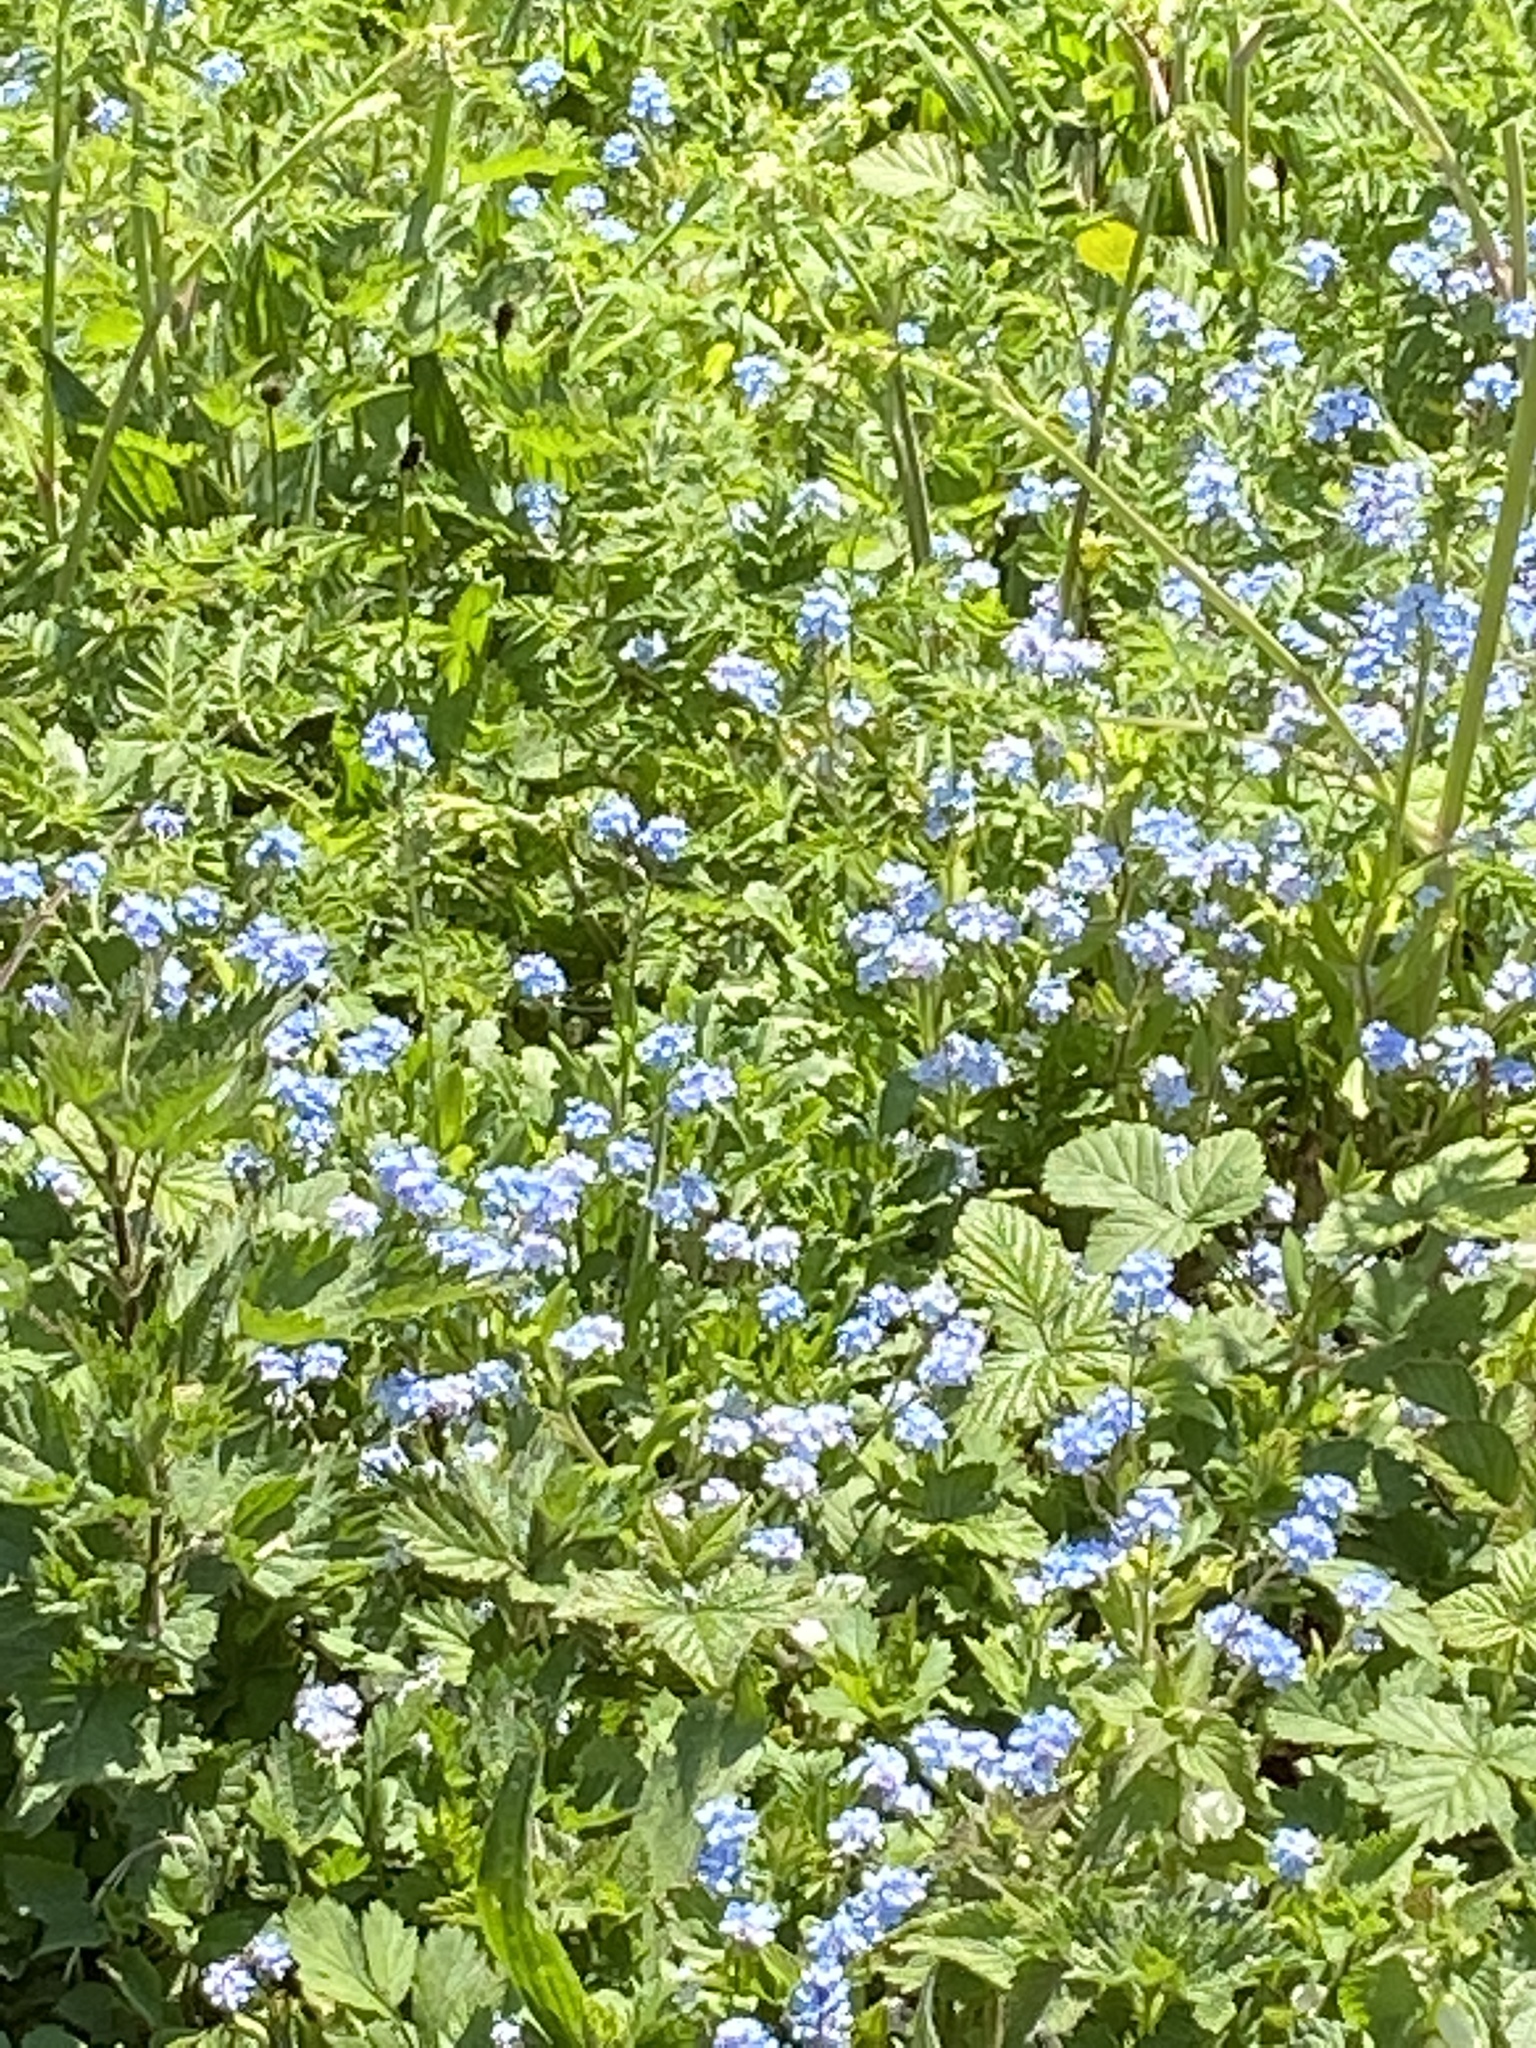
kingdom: Plantae
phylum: Tracheophyta
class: Magnoliopsida
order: Boraginales
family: Boraginaceae
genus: Myosotis
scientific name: Myosotis sylvatica
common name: Wood forget-me-not
